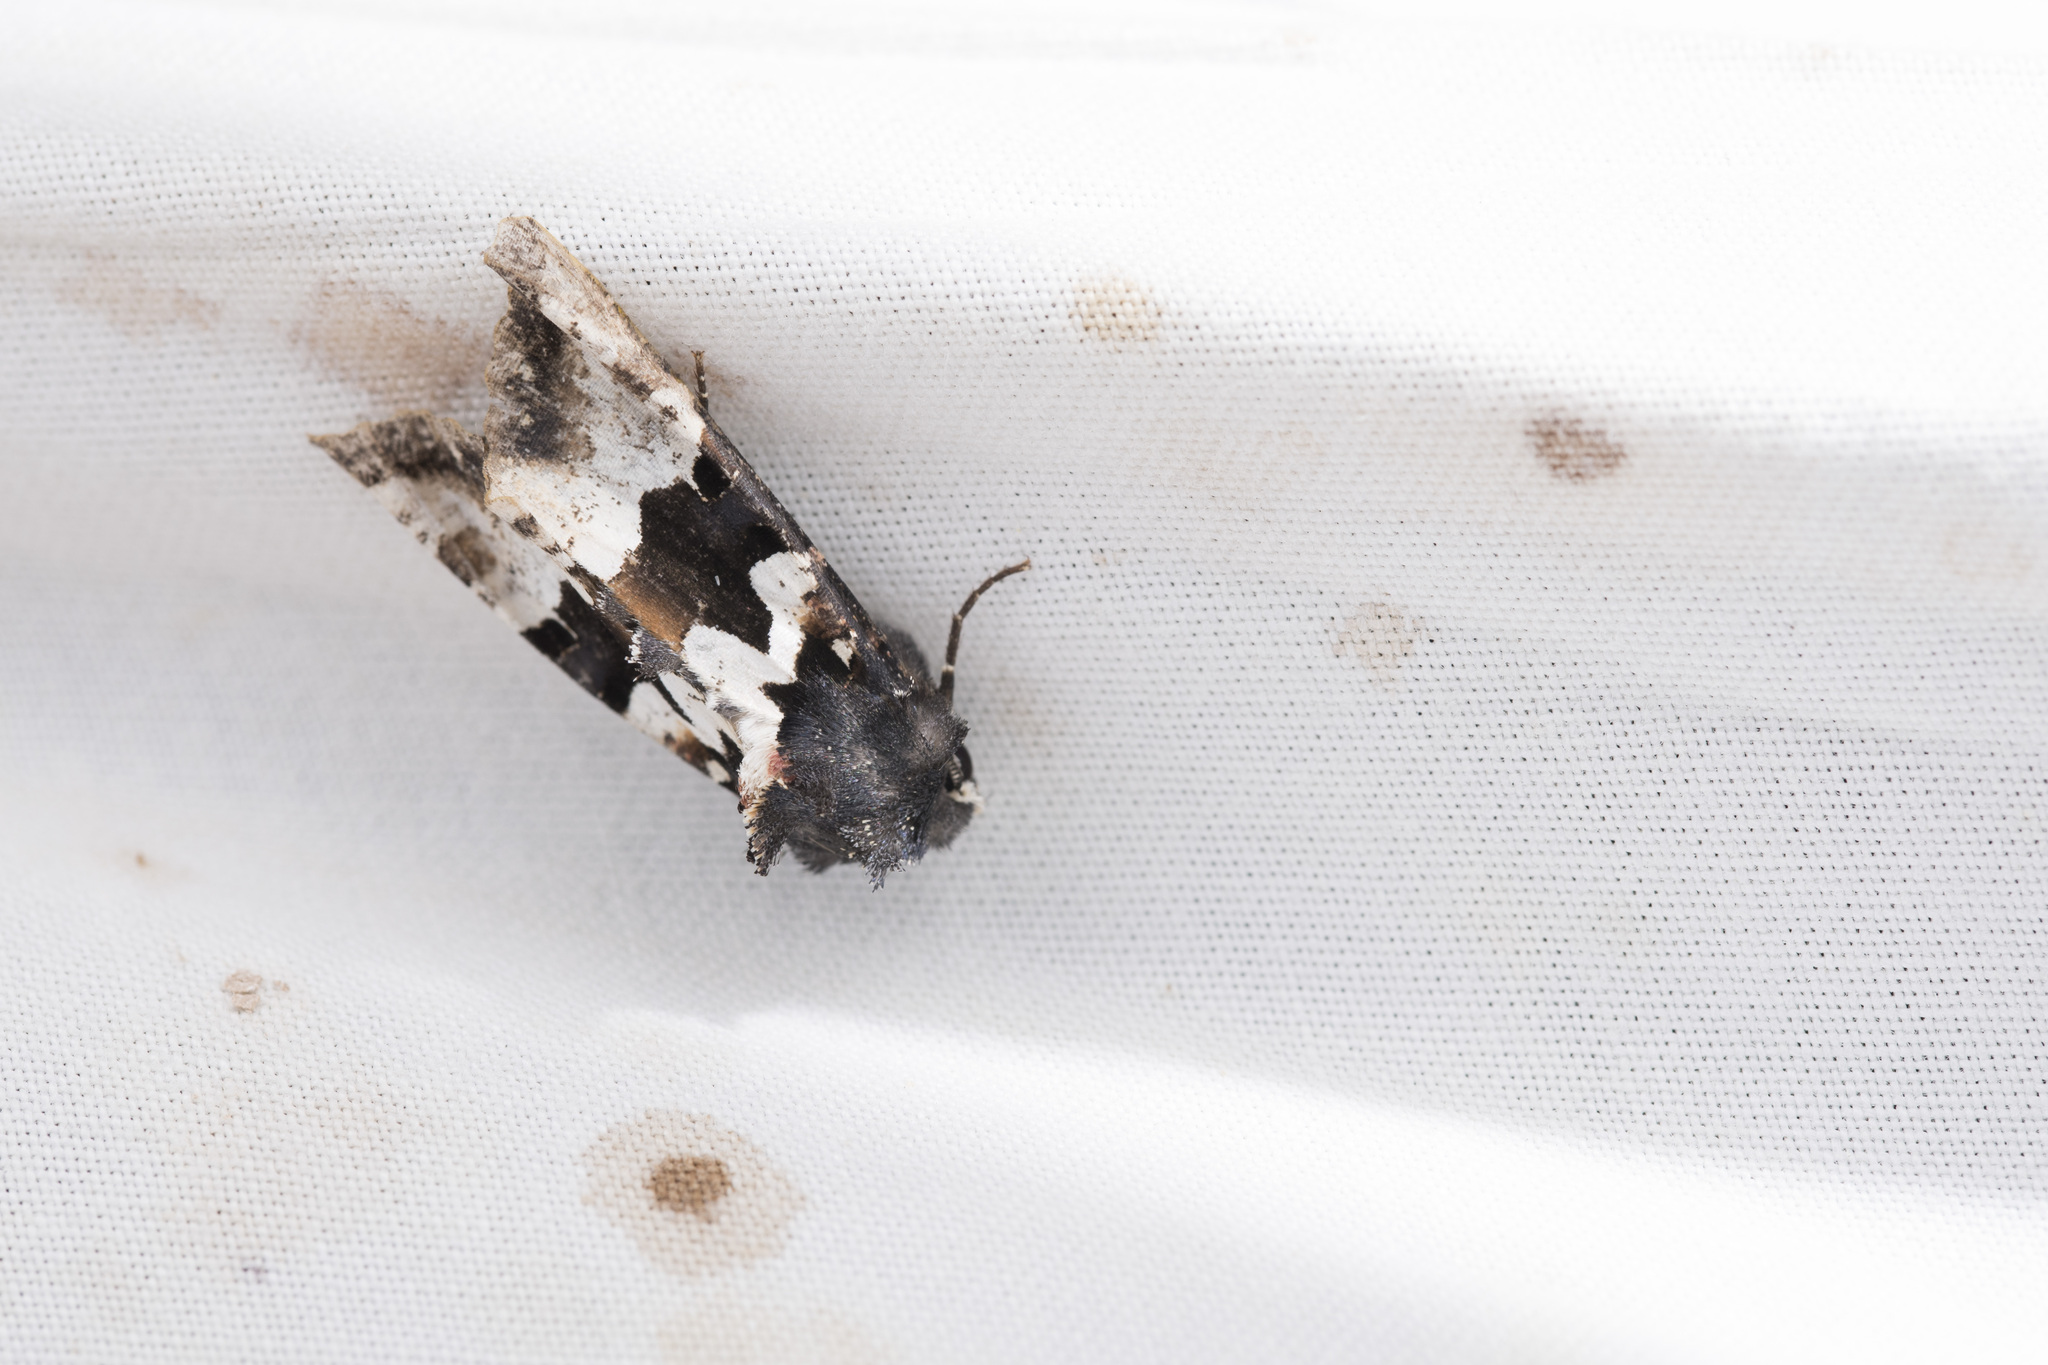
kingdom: Animalia
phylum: Arthropoda
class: Insecta
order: Lepidoptera
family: Noctuidae
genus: Phlogophora
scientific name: Phlogophora albovittata
